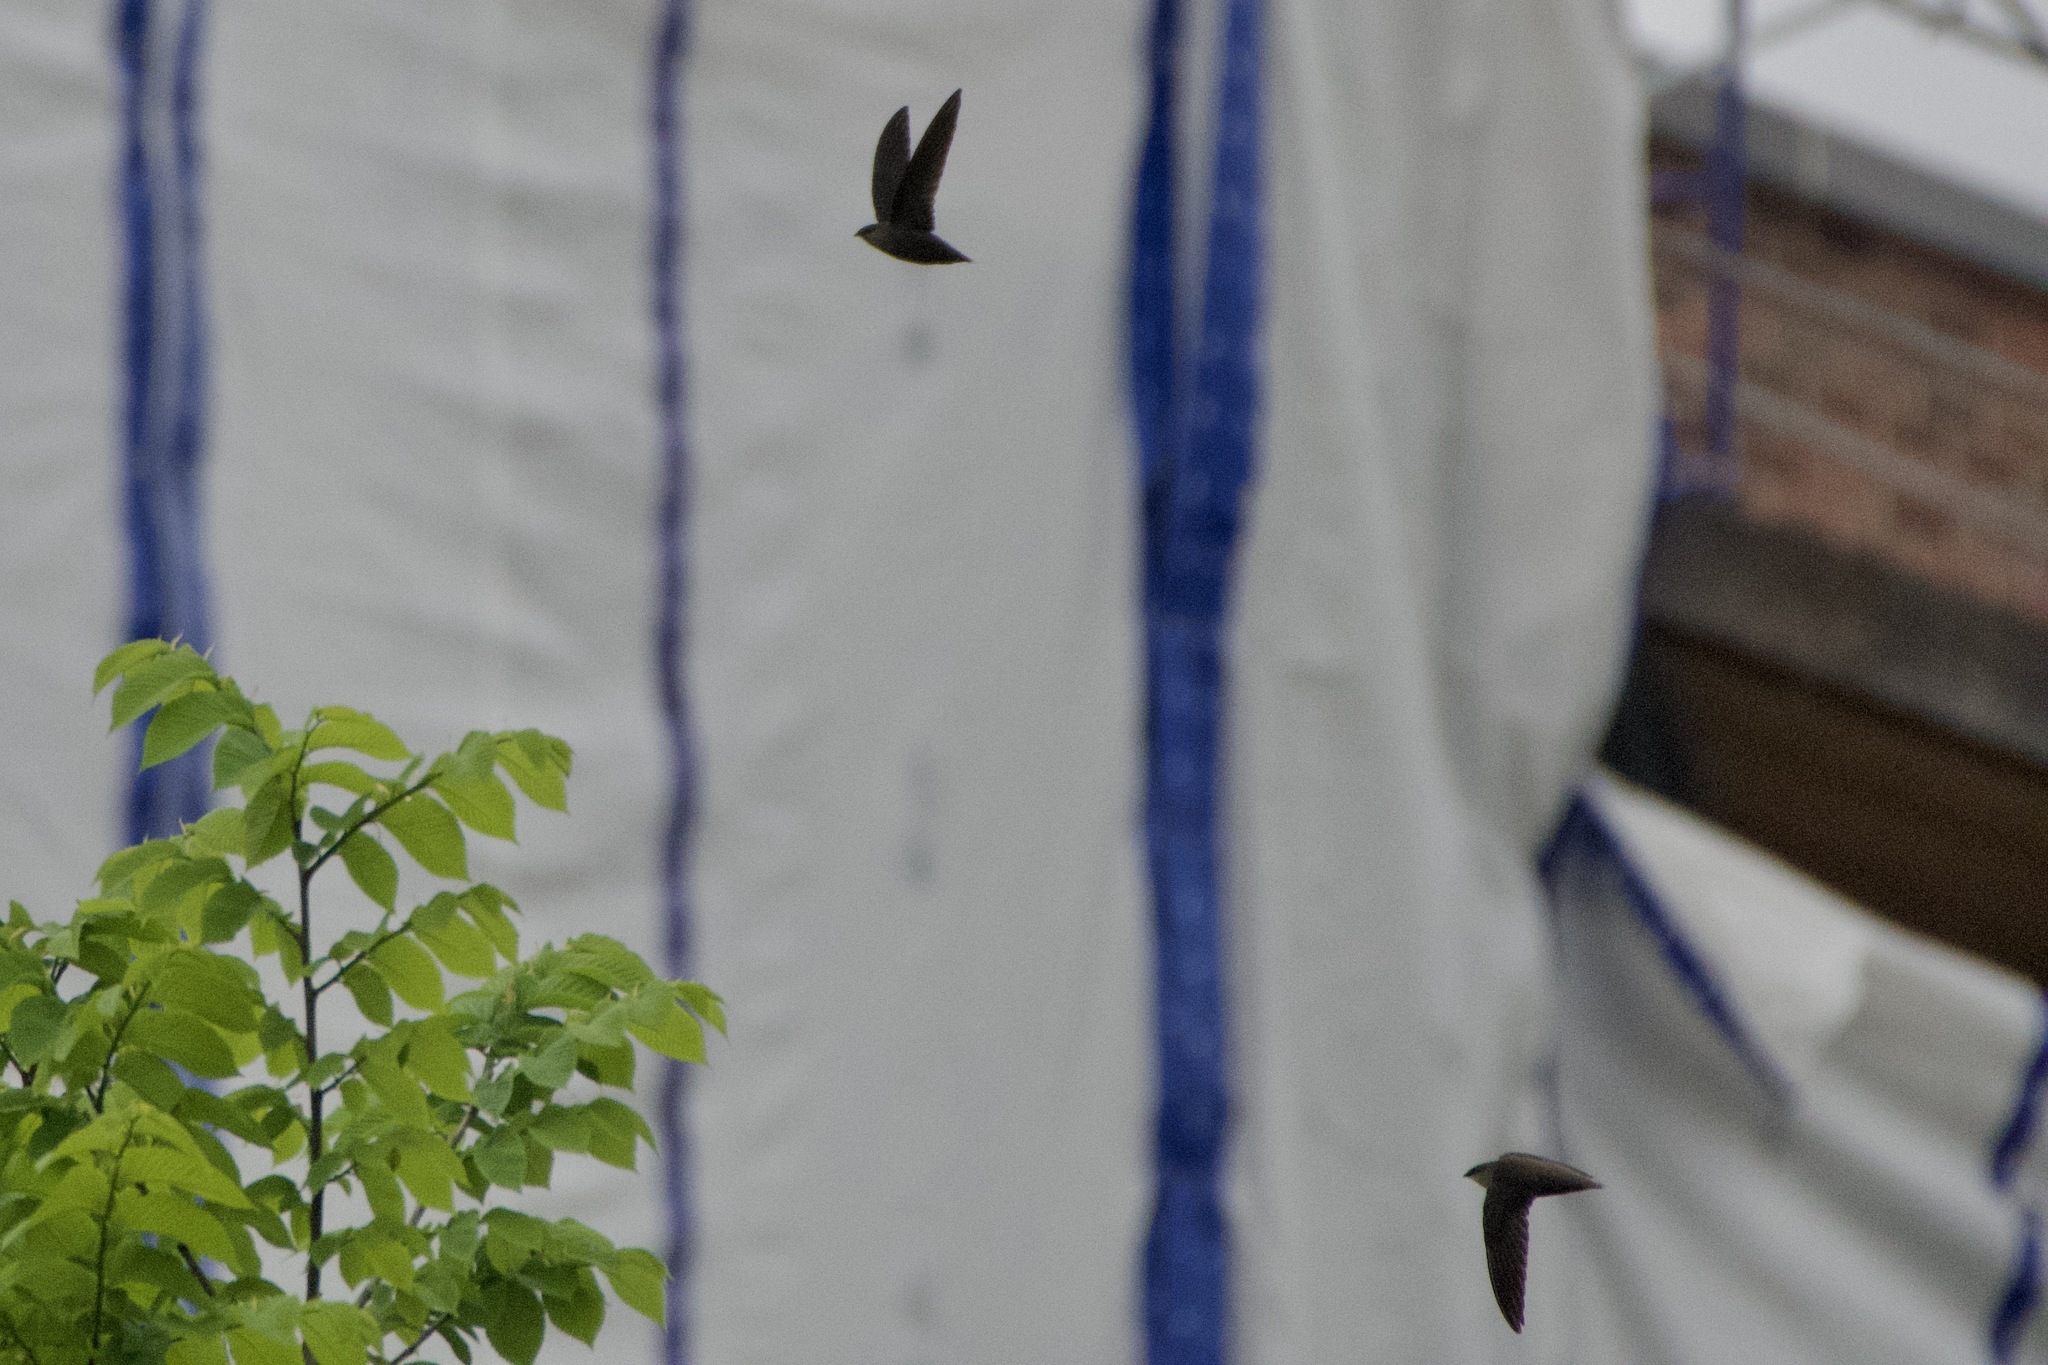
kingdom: Animalia
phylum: Chordata
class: Aves
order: Apodiformes
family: Apodidae
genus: Chaetura
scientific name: Chaetura pelagica
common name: Chimney swift
